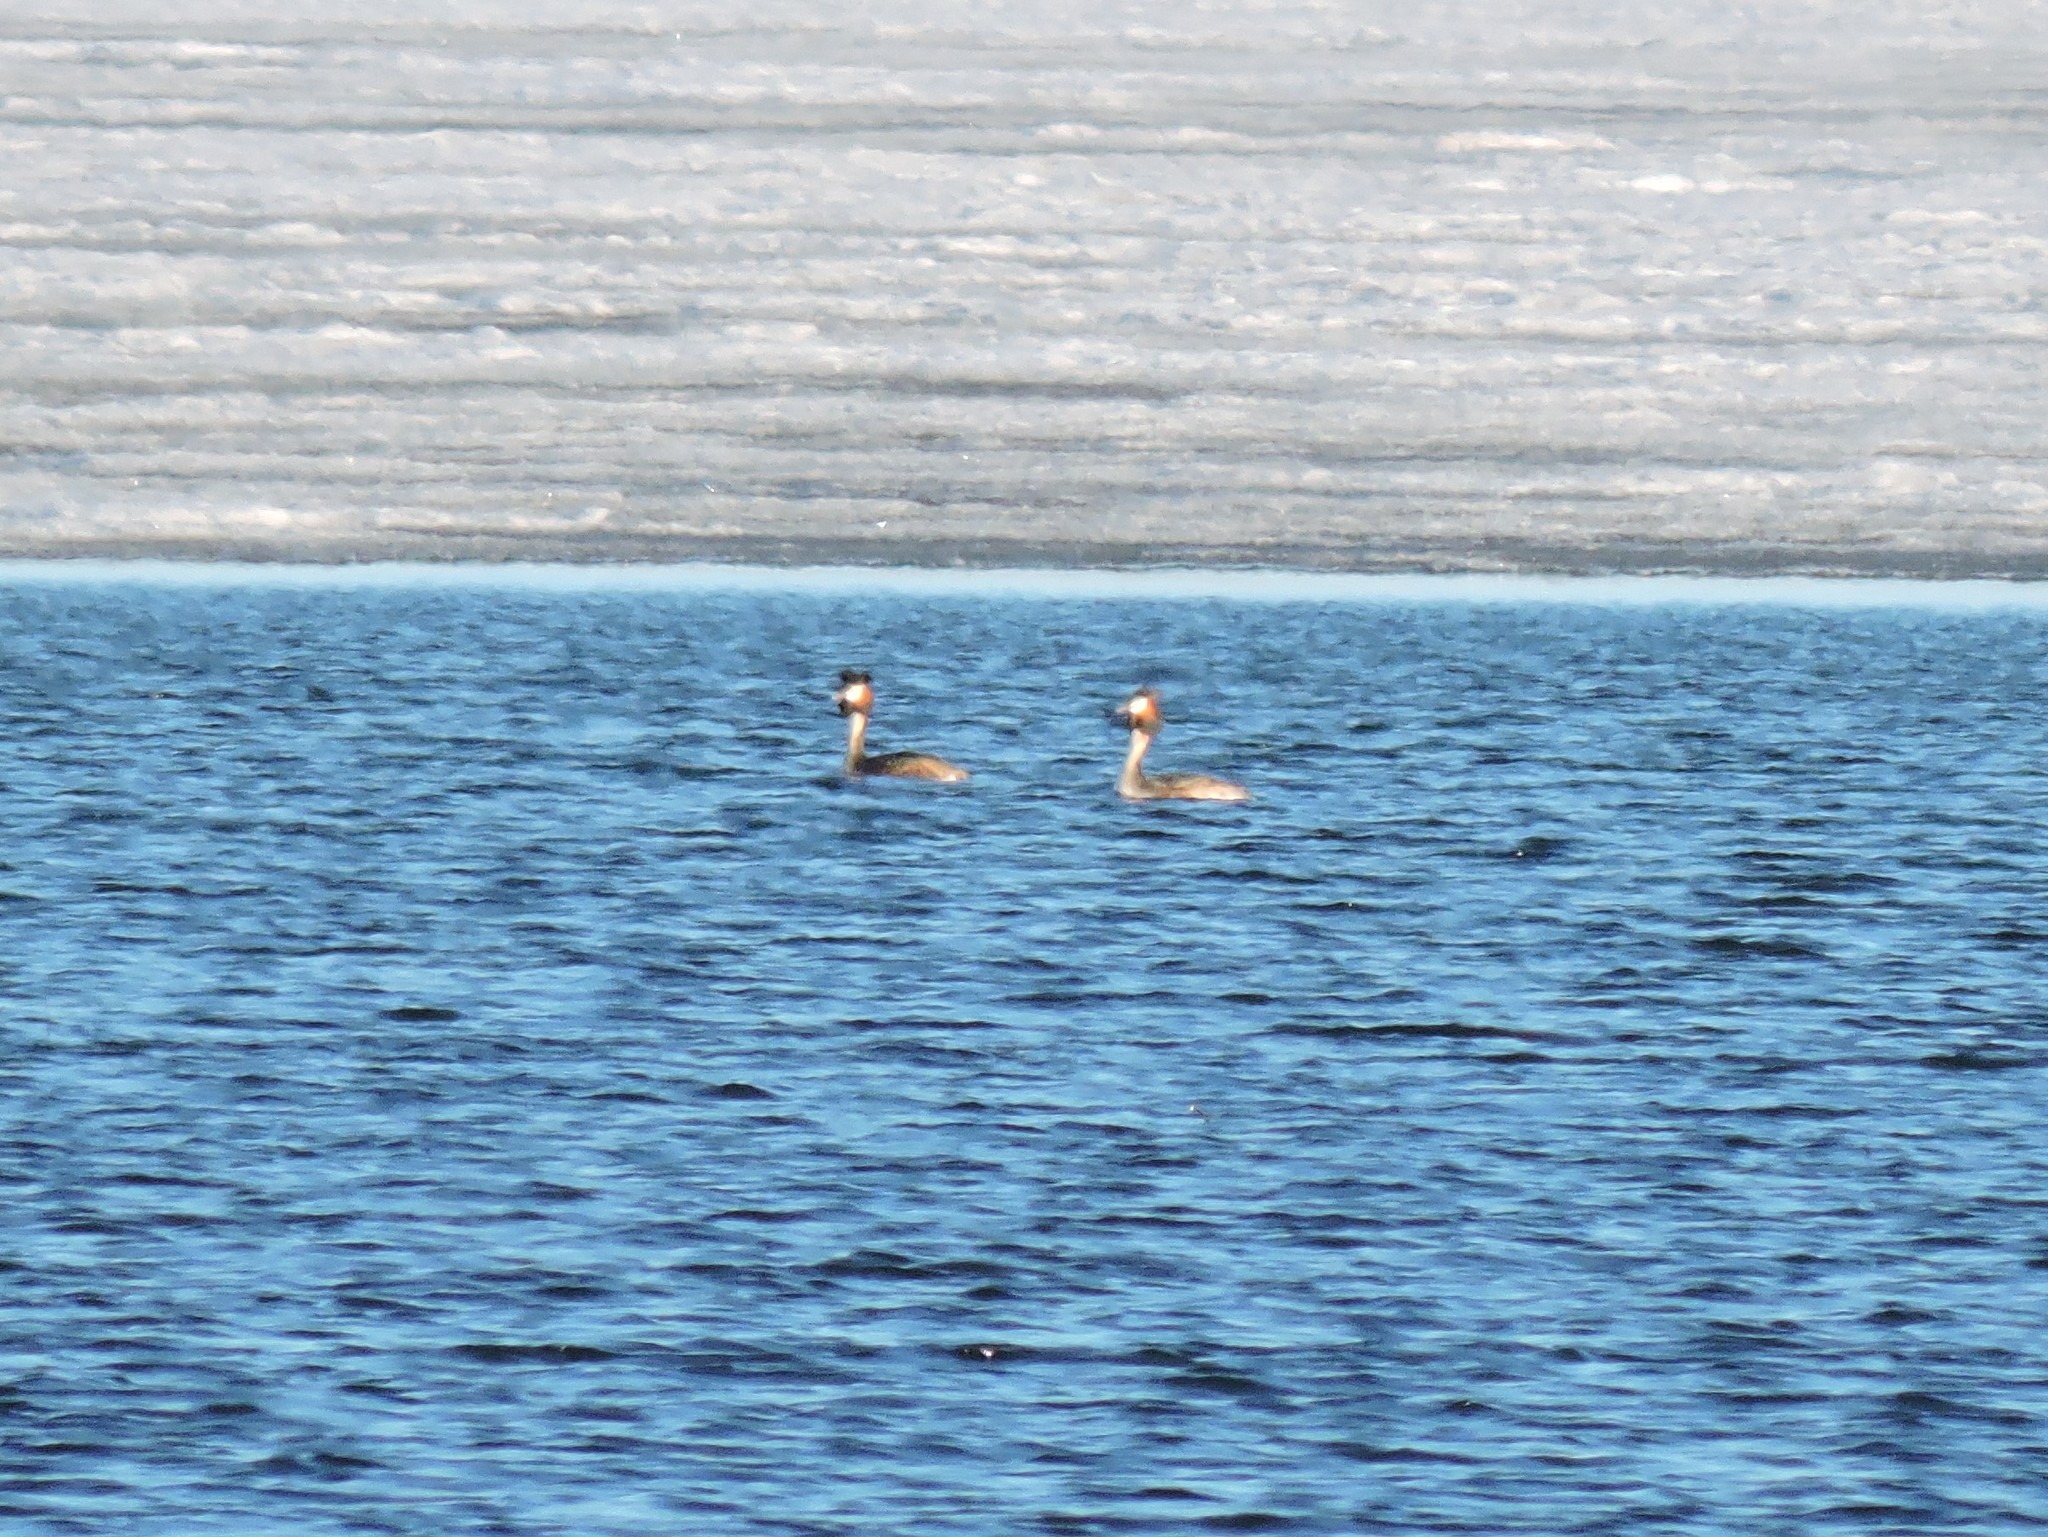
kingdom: Animalia
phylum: Chordata
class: Aves
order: Podicipediformes
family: Podicipedidae
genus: Podiceps
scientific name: Podiceps cristatus
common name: Great crested grebe
